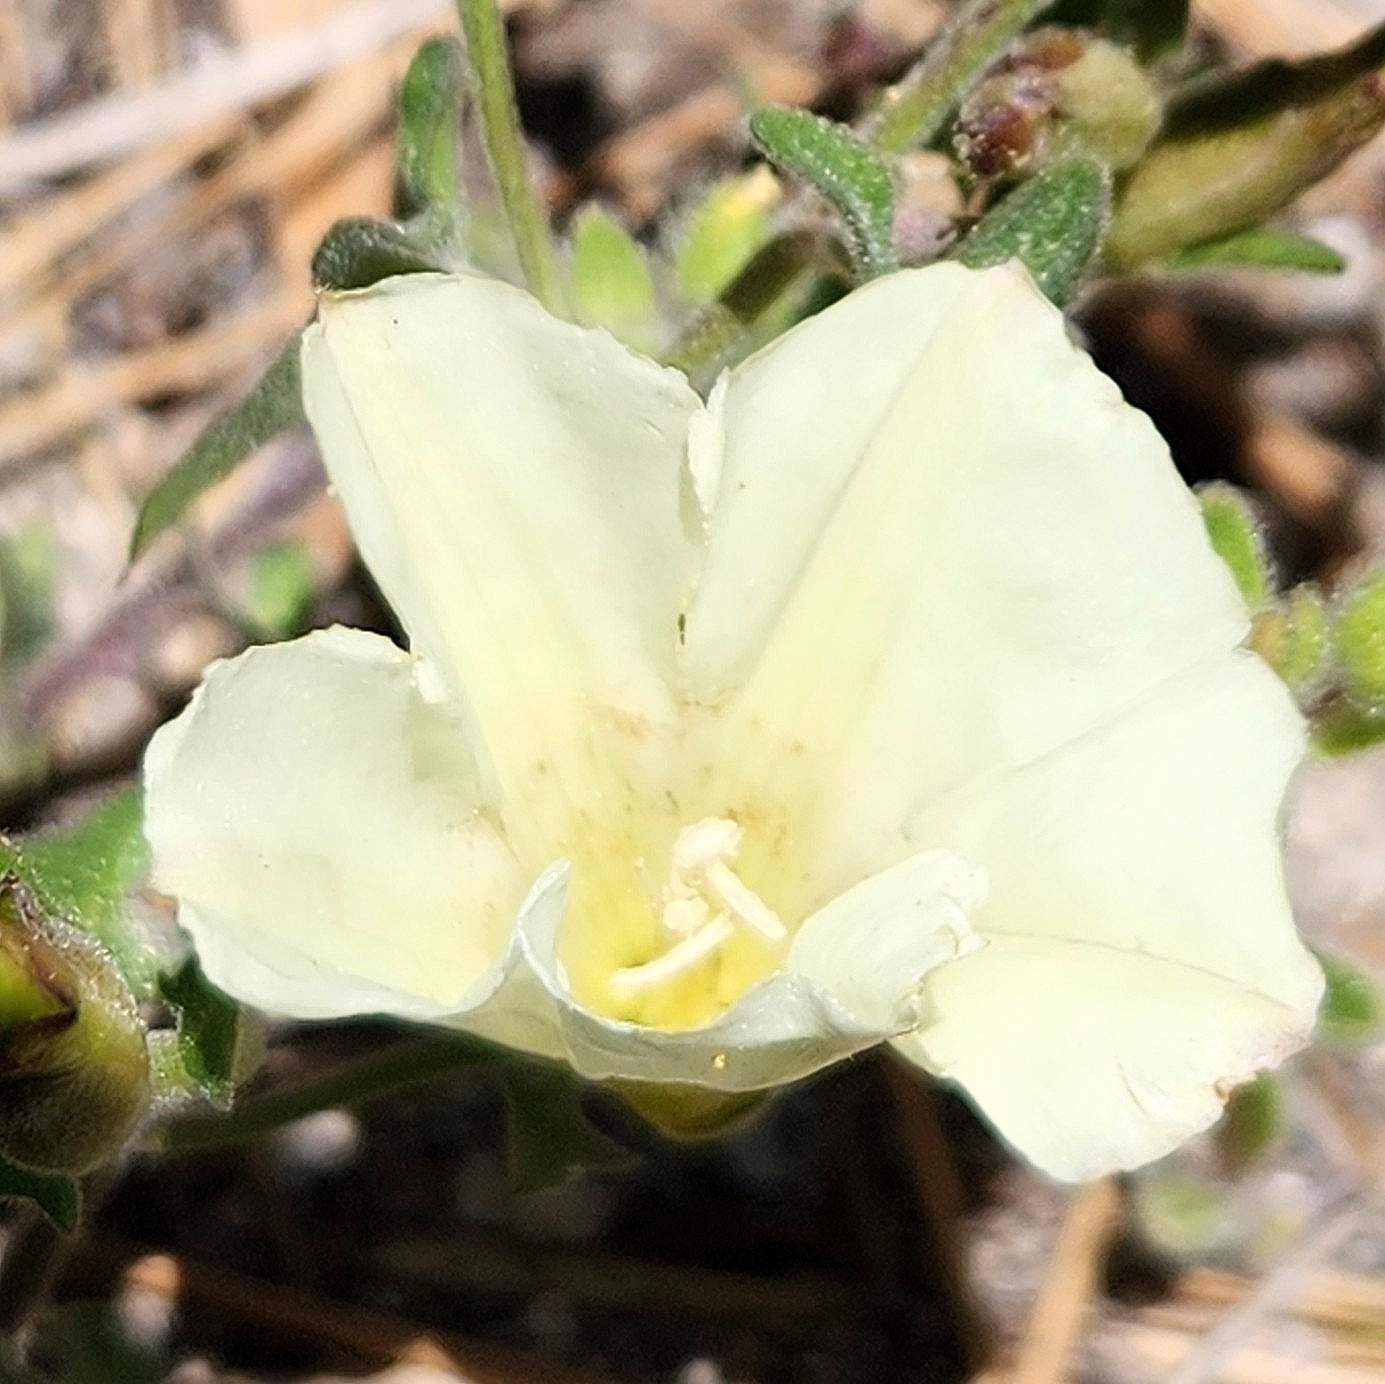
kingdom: Plantae
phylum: Tracheophyta
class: Magnoliopsida
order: Solanales
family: Convolvulaceae
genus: Calystegia
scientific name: Calystegia occidentalis
